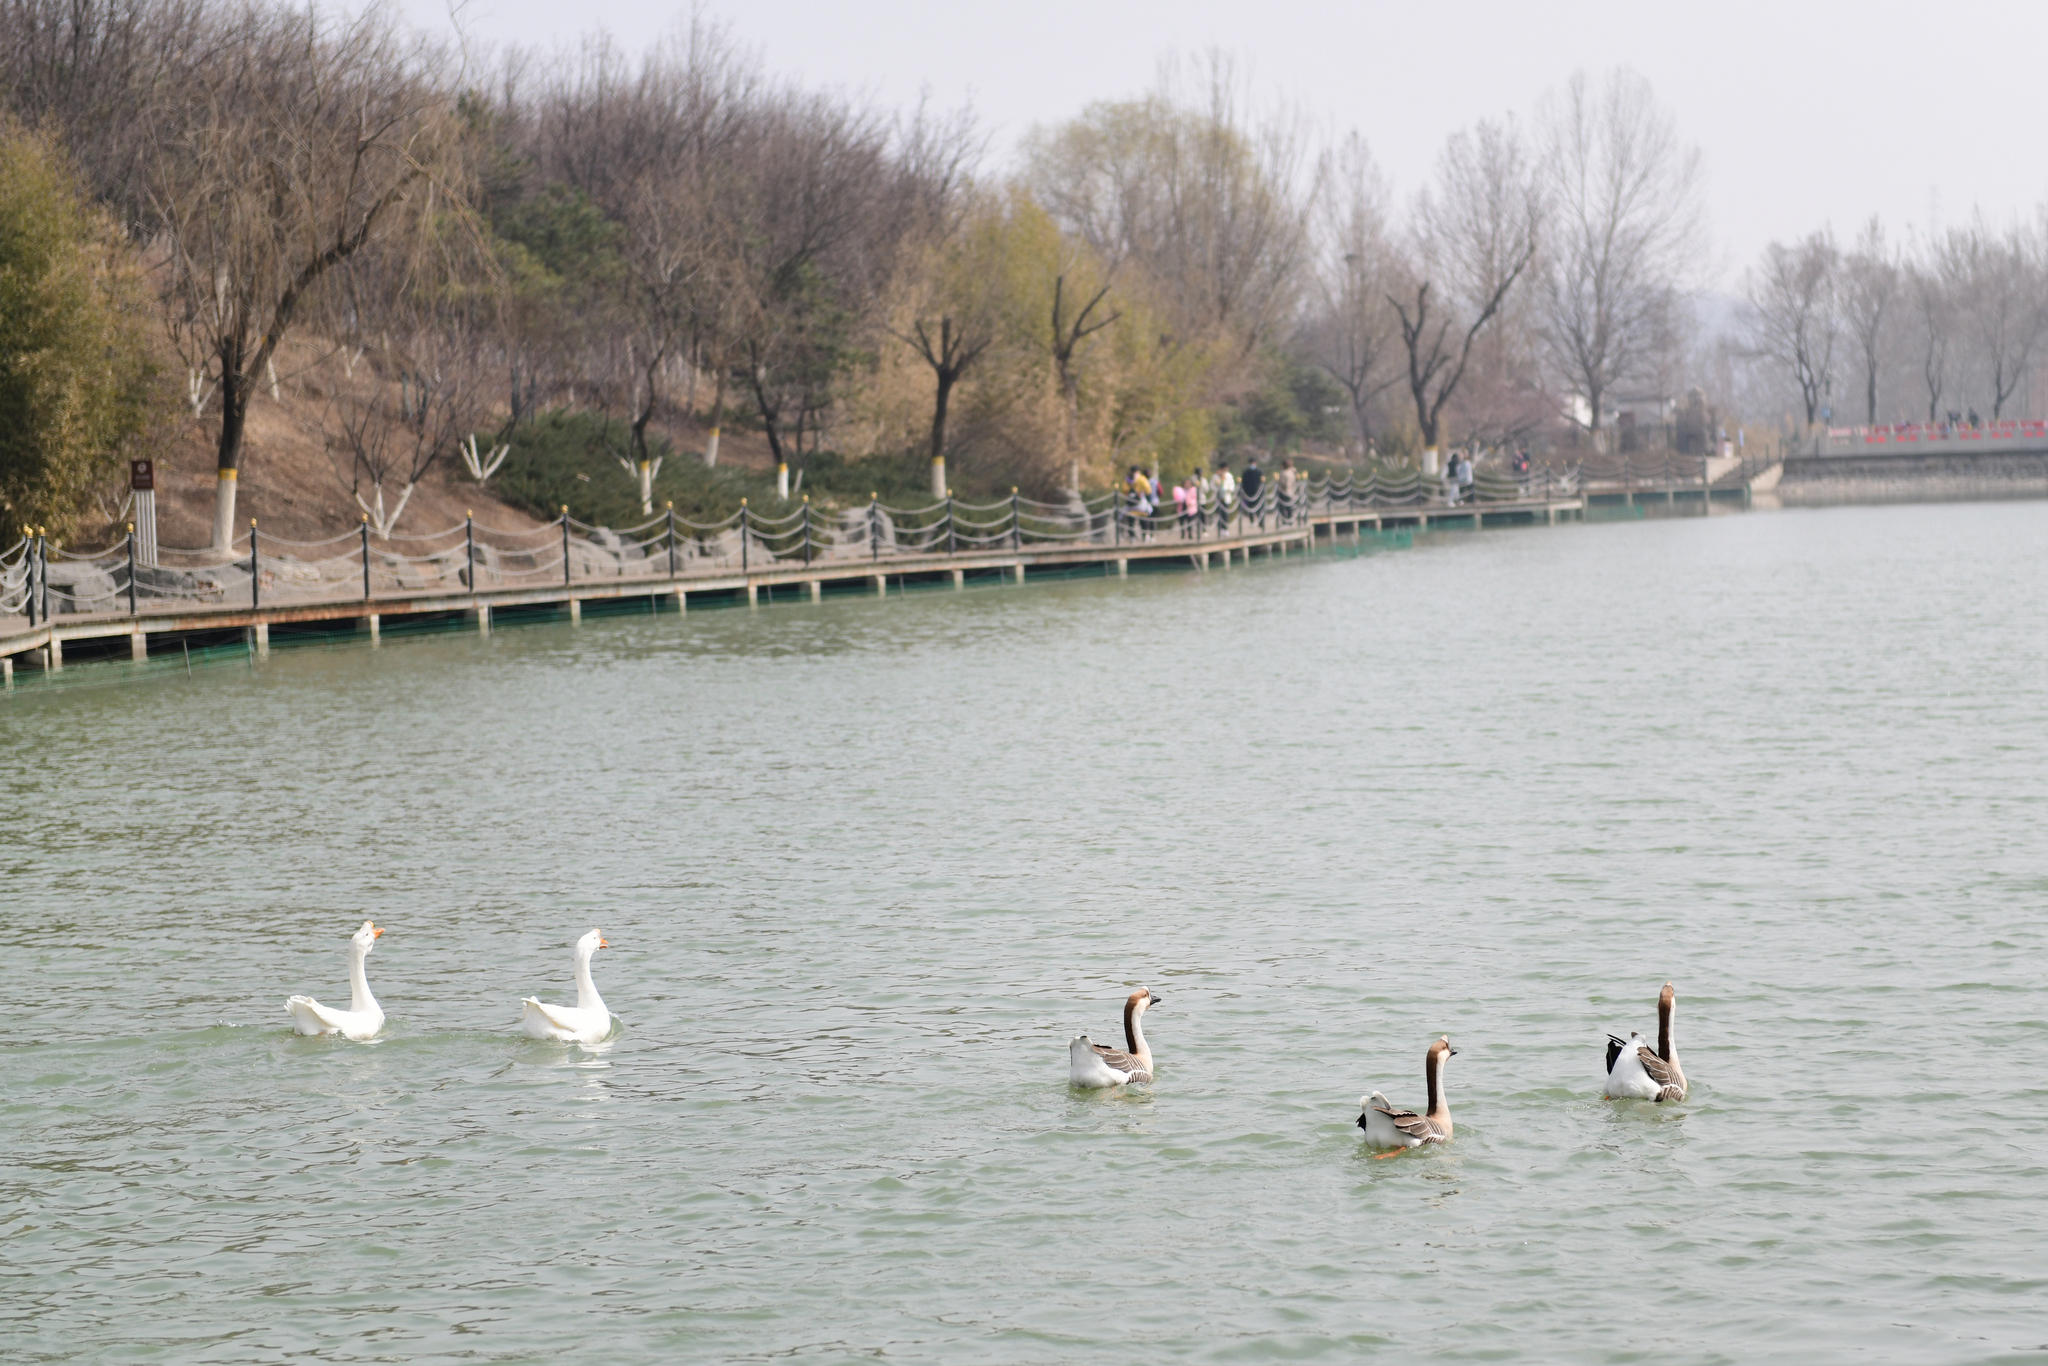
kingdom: Animalia
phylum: Chordata
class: Aves
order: Anseriformes
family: Anatidae
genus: Anser
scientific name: Anser cygnoides
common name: Swan goose
